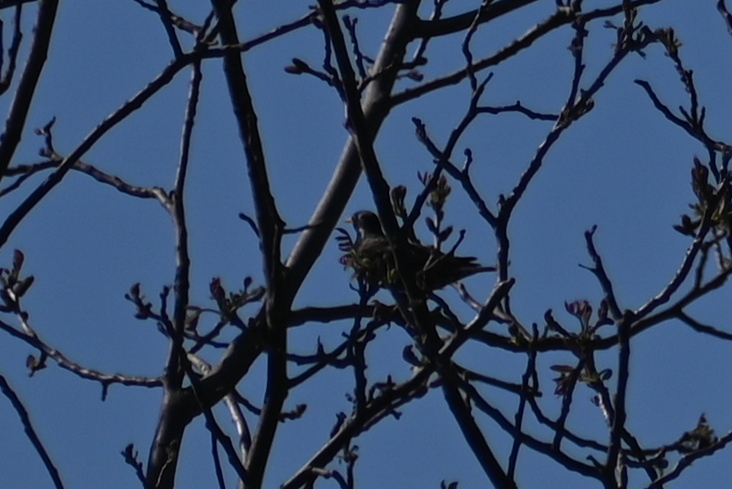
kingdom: Animalia
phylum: Chordata
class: Aves
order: Passeriformes
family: Sturnidae
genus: Sturnus
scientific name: Sturnus vulgaris
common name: Common starling
